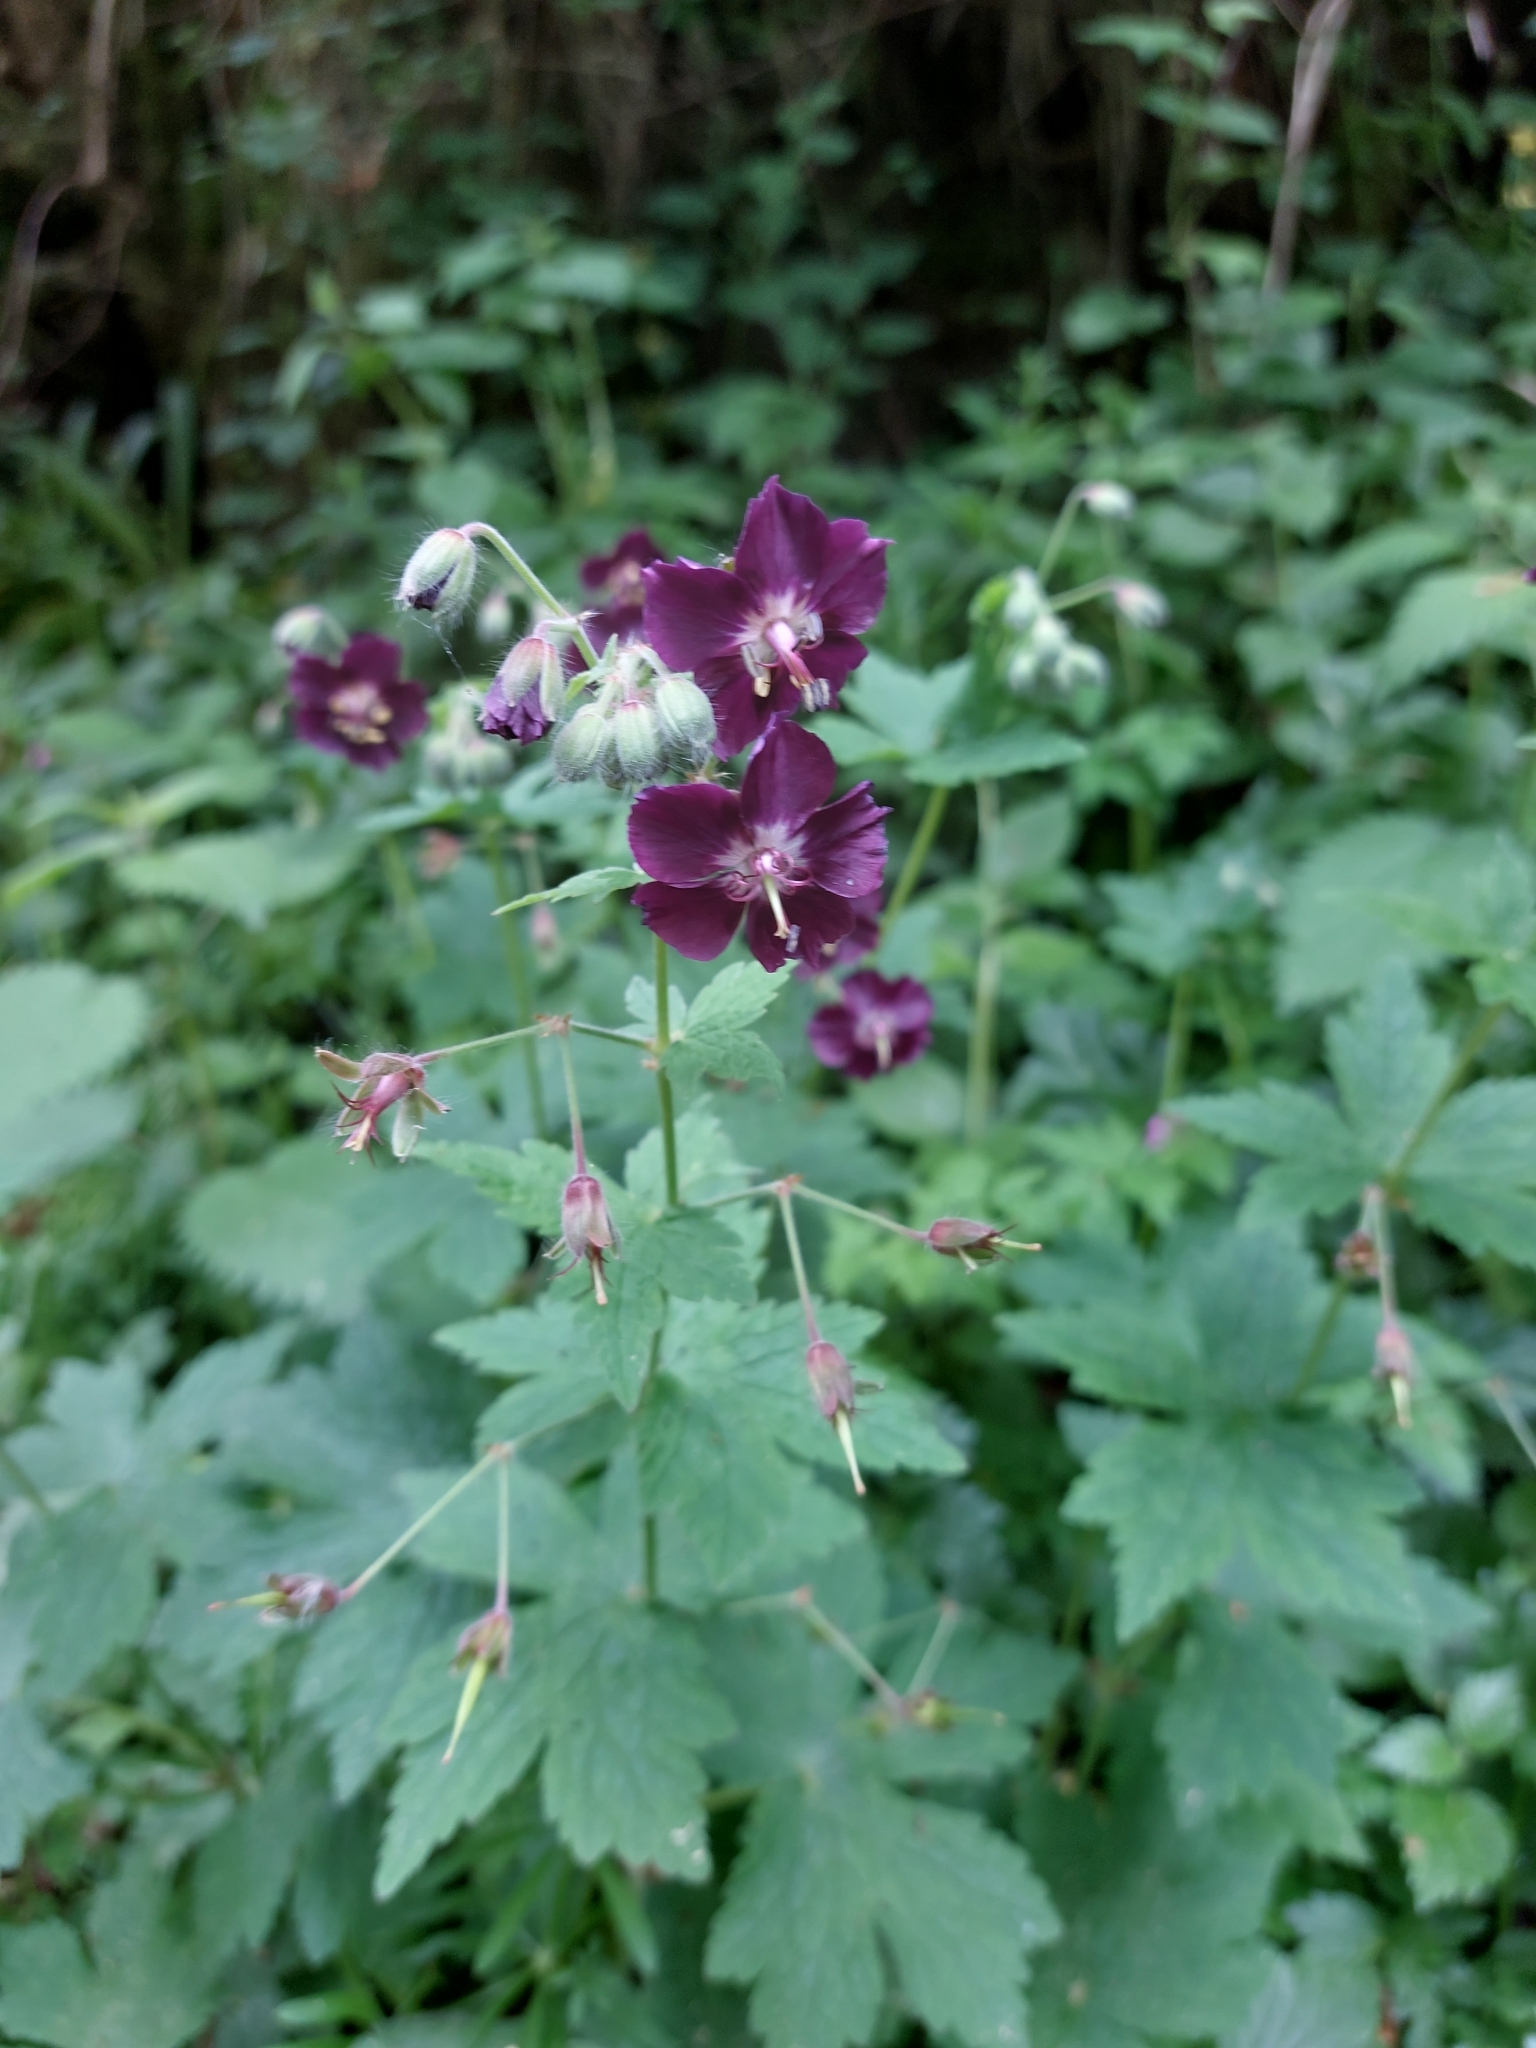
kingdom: Plantae
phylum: Tracheophyta
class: Magnoliopsida
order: Geraniales
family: Geraniaceae
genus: Geranium
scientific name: Geranium phaeum
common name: Dusky crane's-bill
